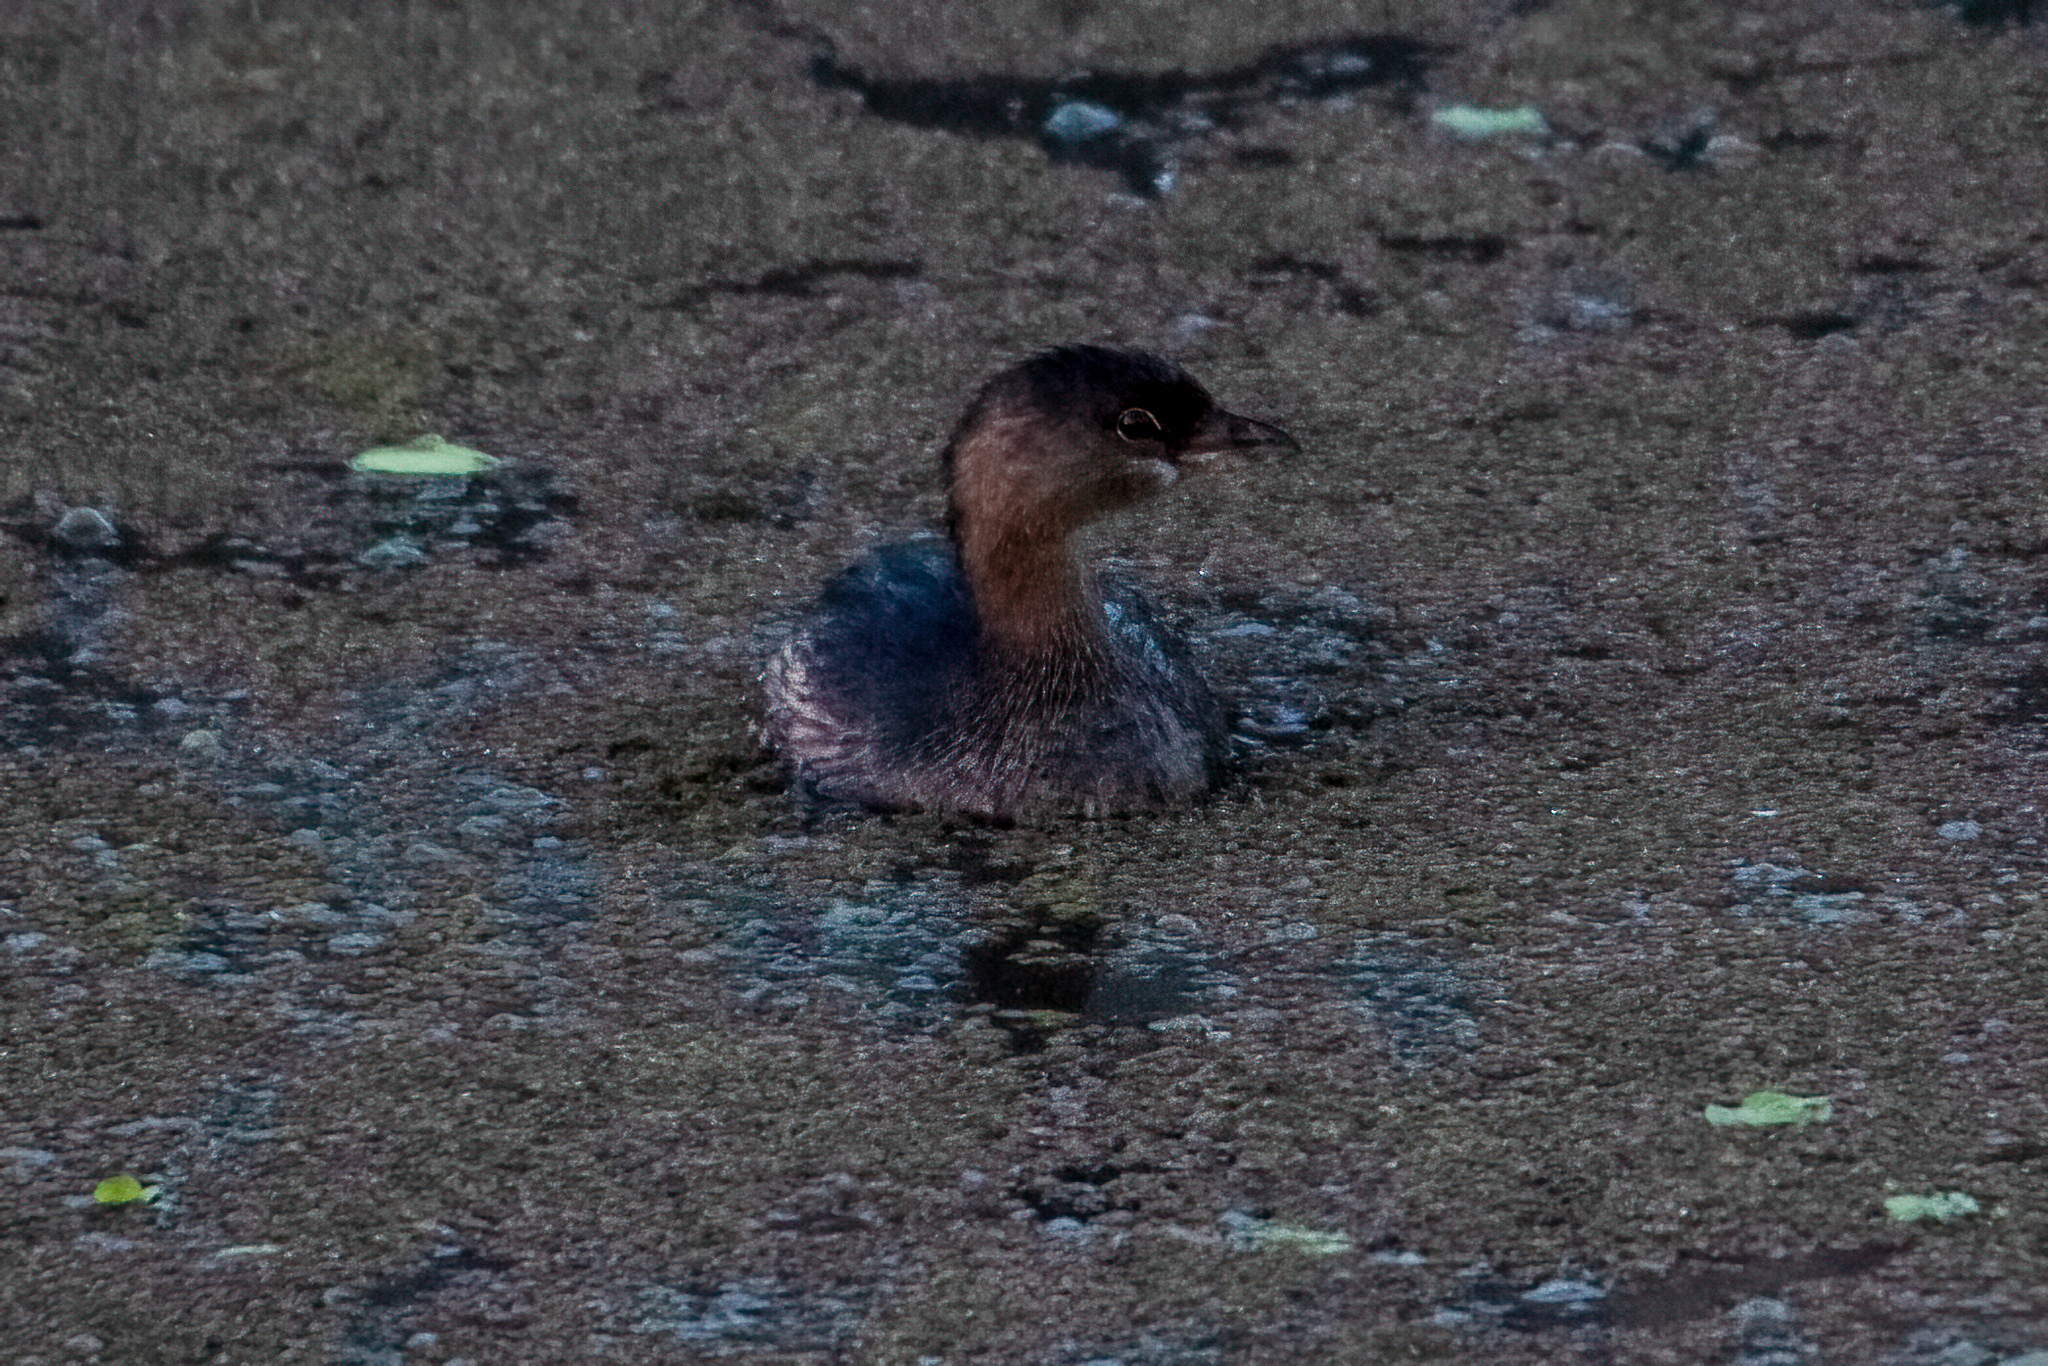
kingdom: Animalia
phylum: Chordata
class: Aves
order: Podicipediformes
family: Podicipedidae
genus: Podilymbus
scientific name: Podilymbus podiceps
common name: Pied-billed grebe
